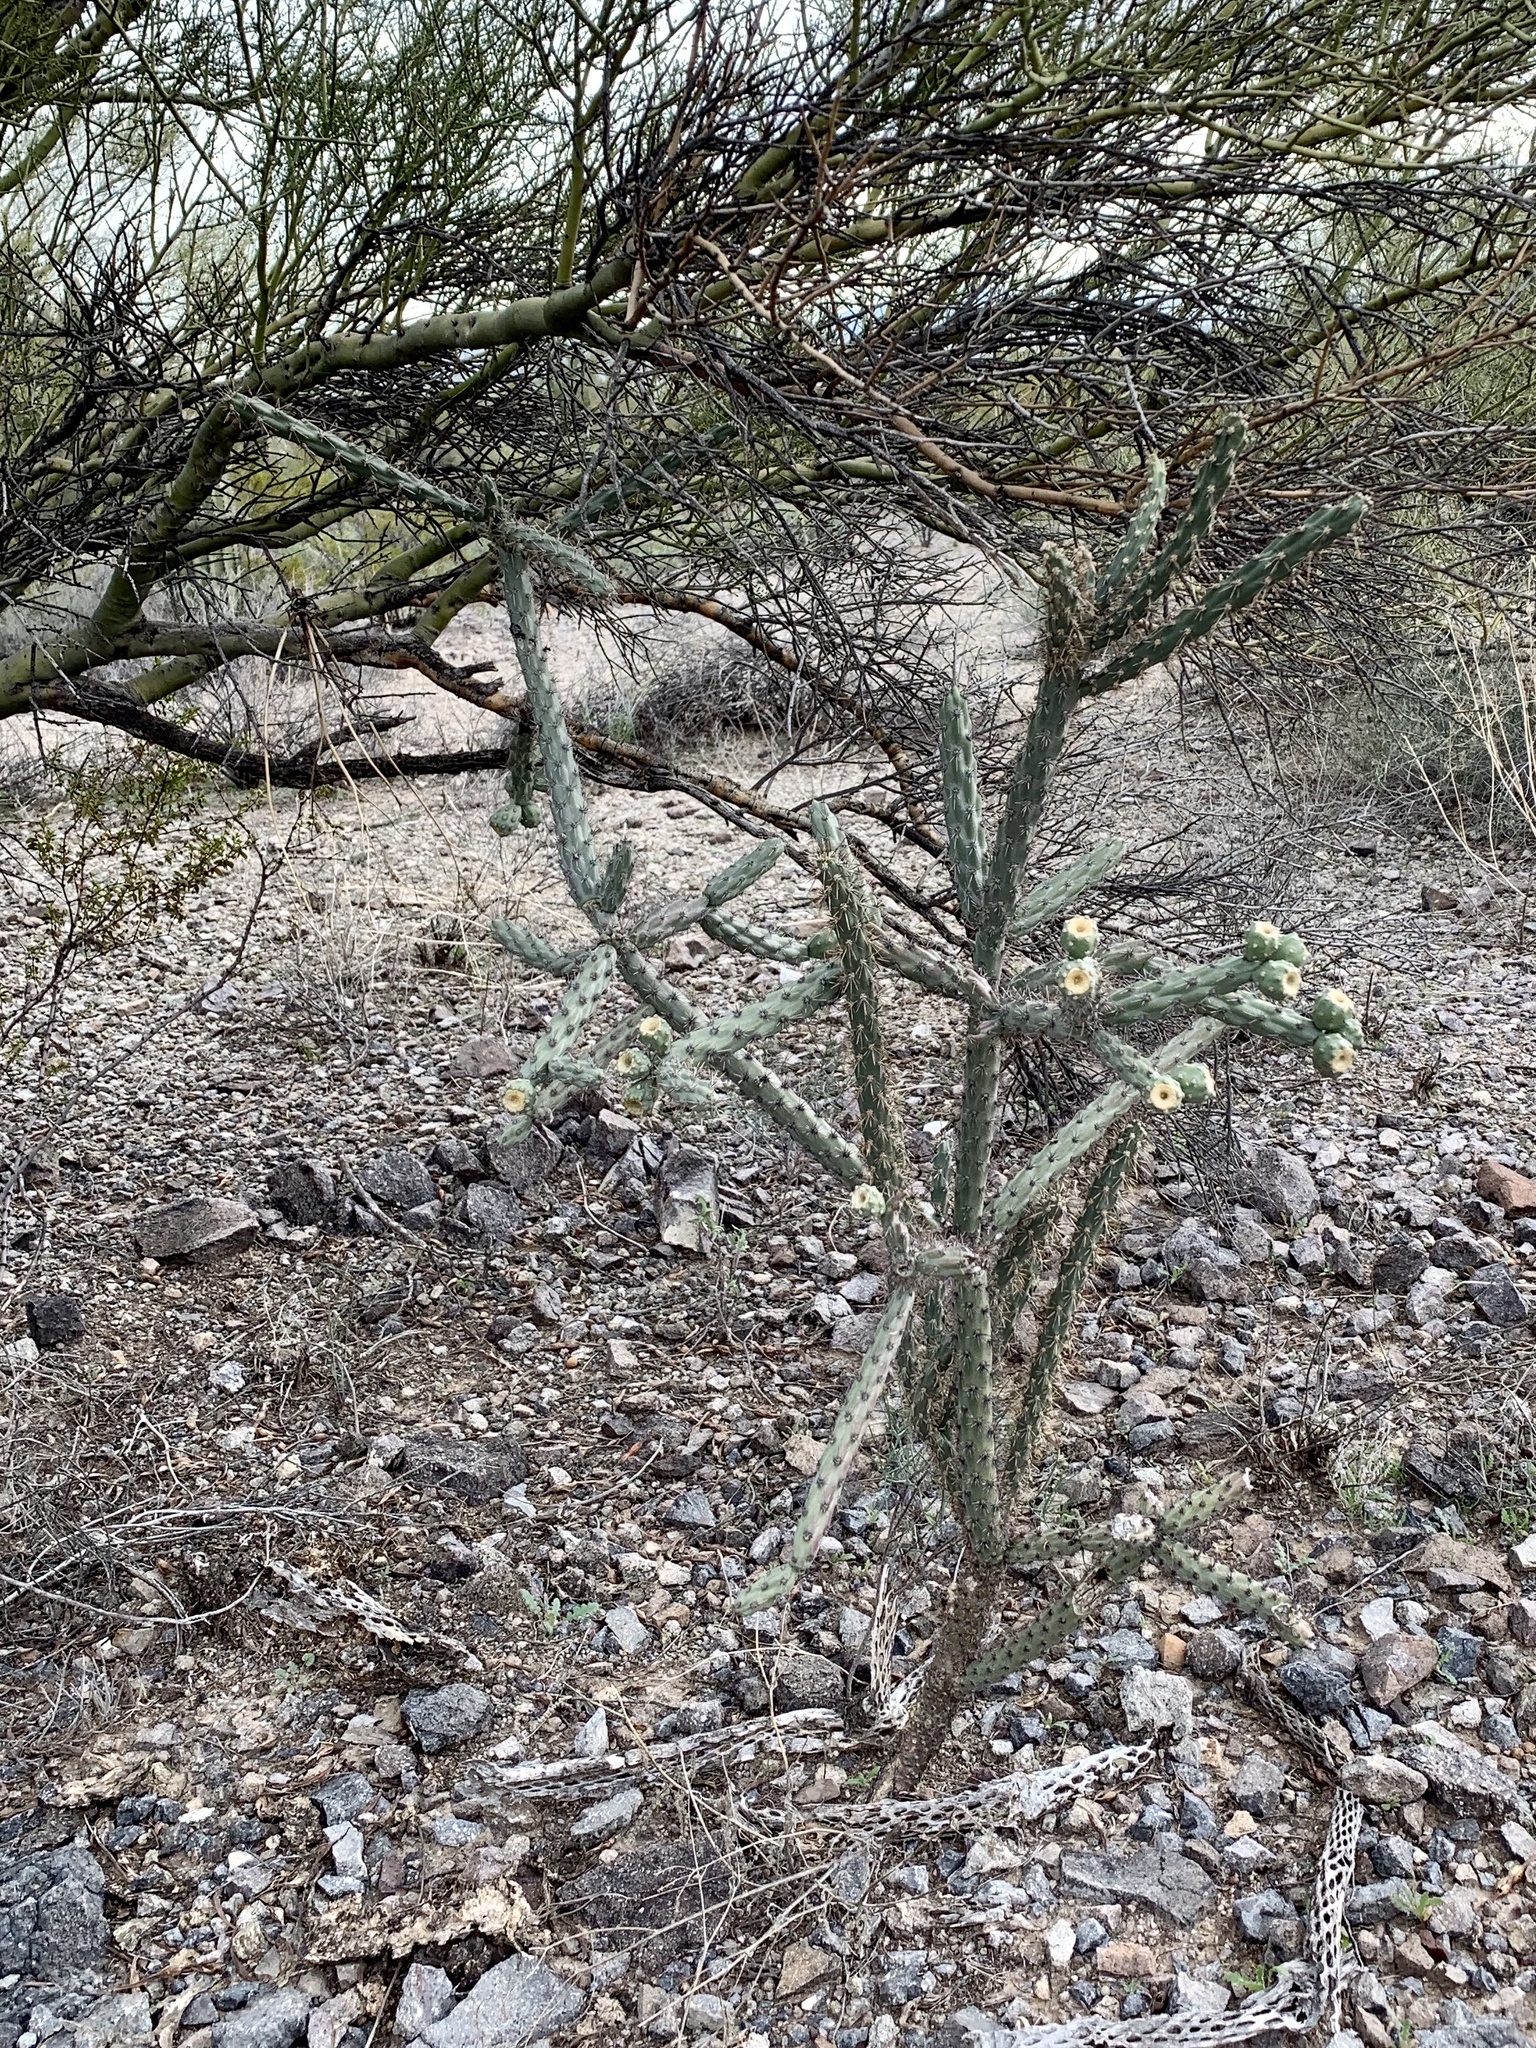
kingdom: Plantae
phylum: Tracheophyta
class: Magnoliopsida
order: Caryophyllales
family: Cactaceae
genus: Cylindropuntia
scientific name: Cylindropuntia thurberi
